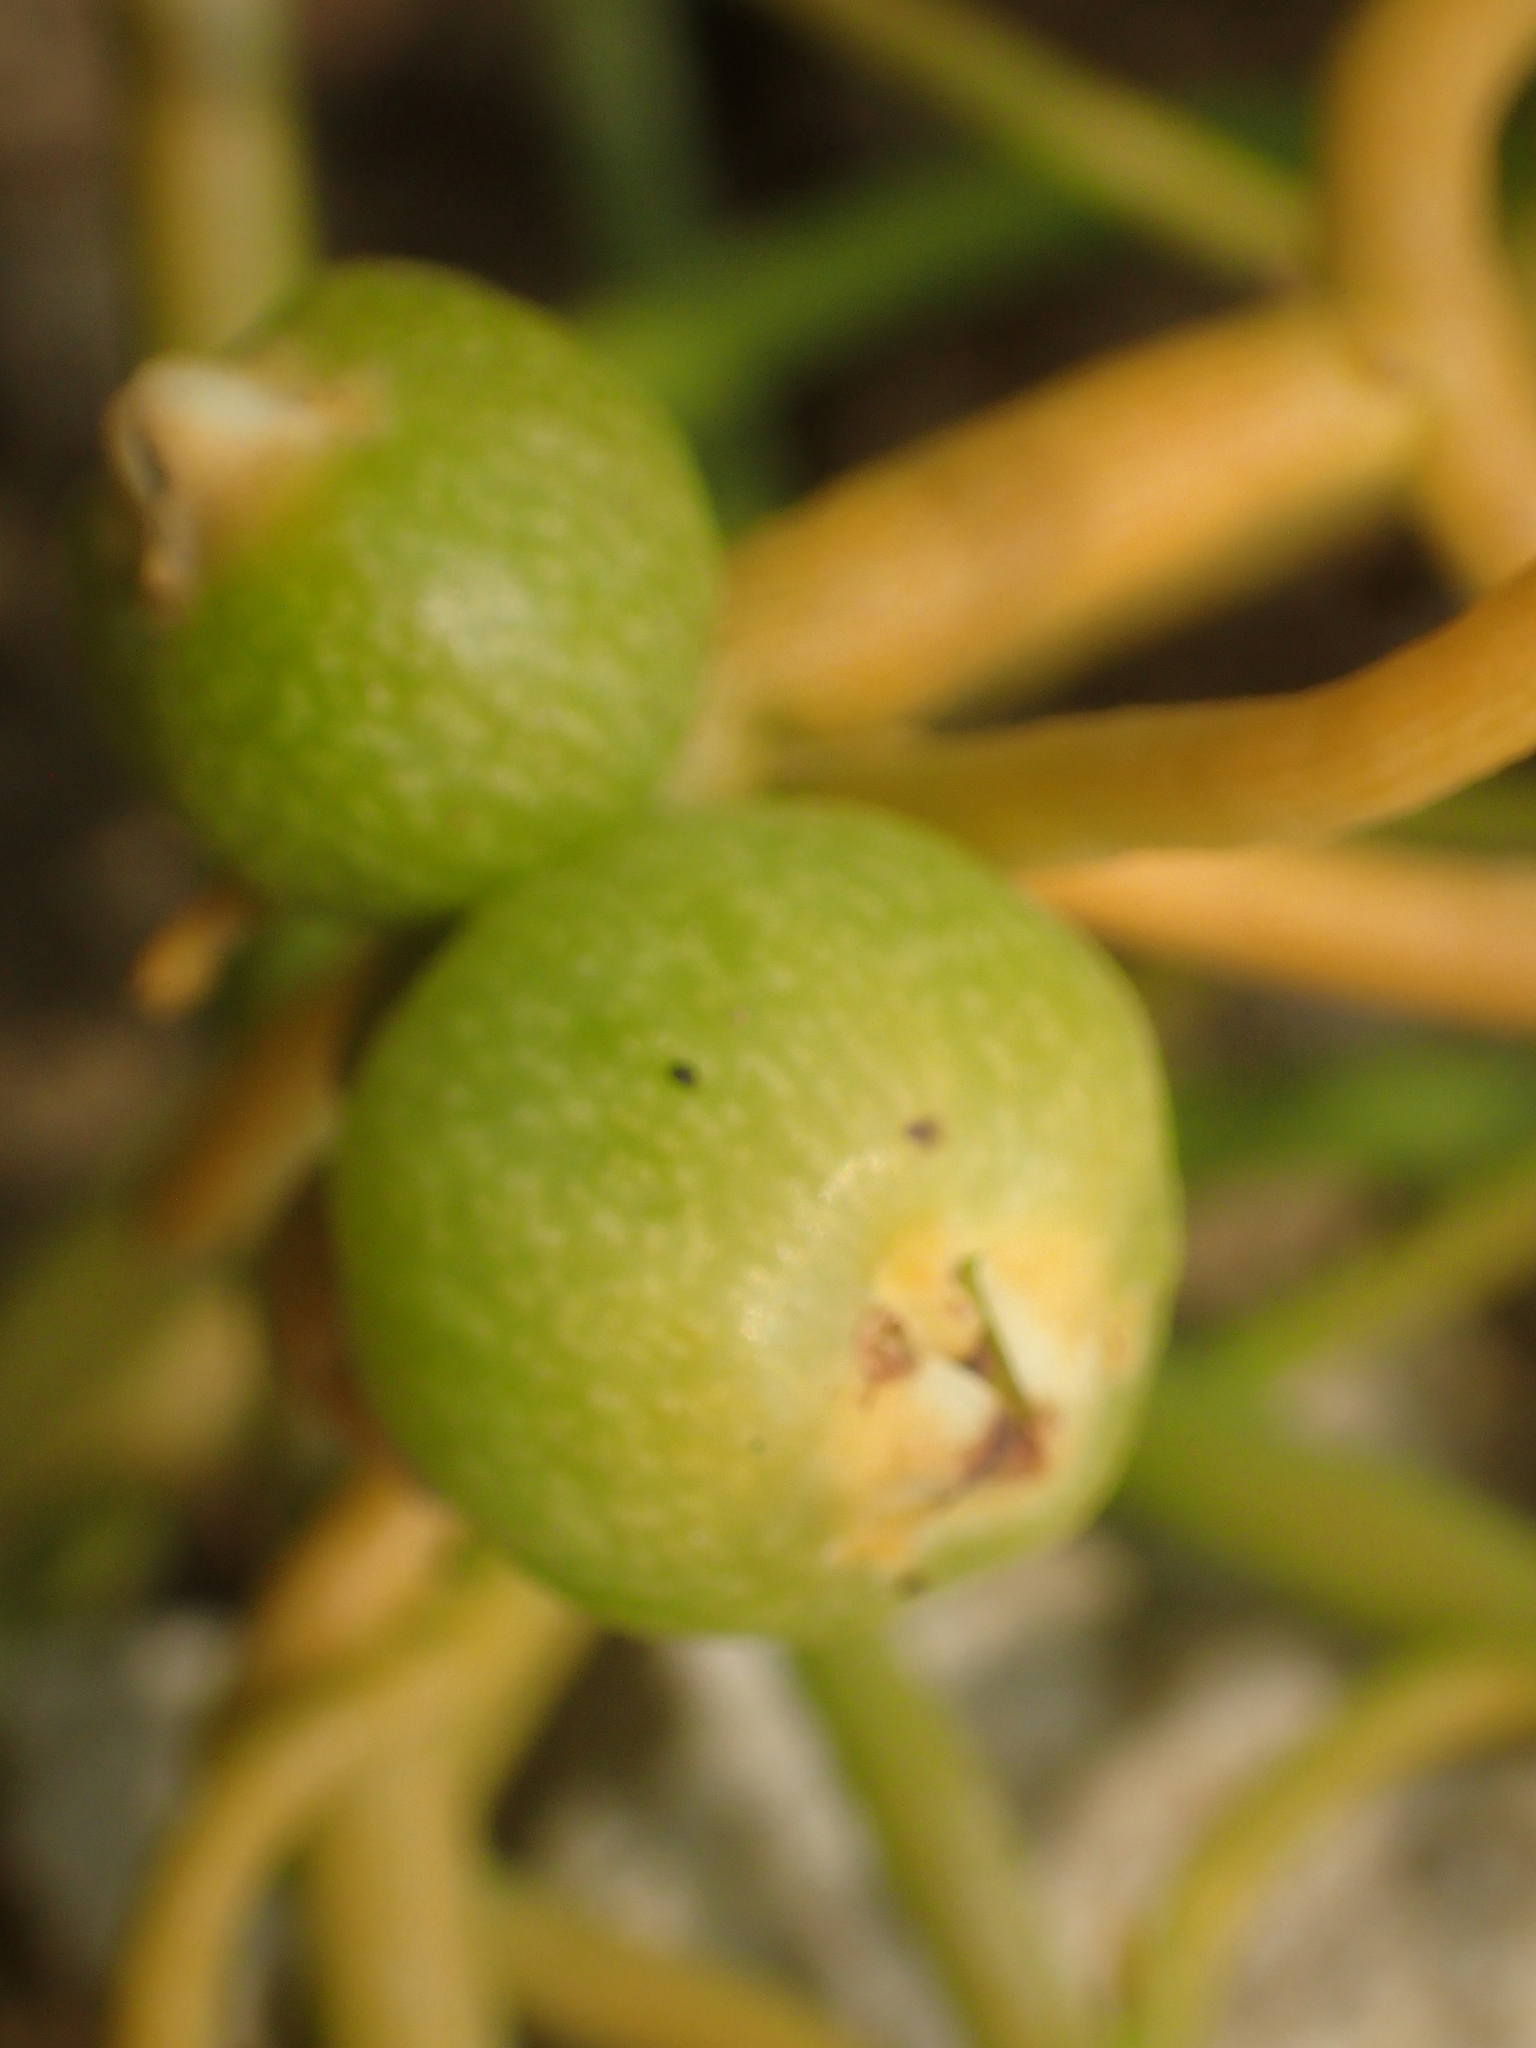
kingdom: Plantae
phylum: Tracheophyta
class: Magnoliopsida
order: Laurales
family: Lauraceae
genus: Cassytha
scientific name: Cassytha filiformis
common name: Dodder-laurel
